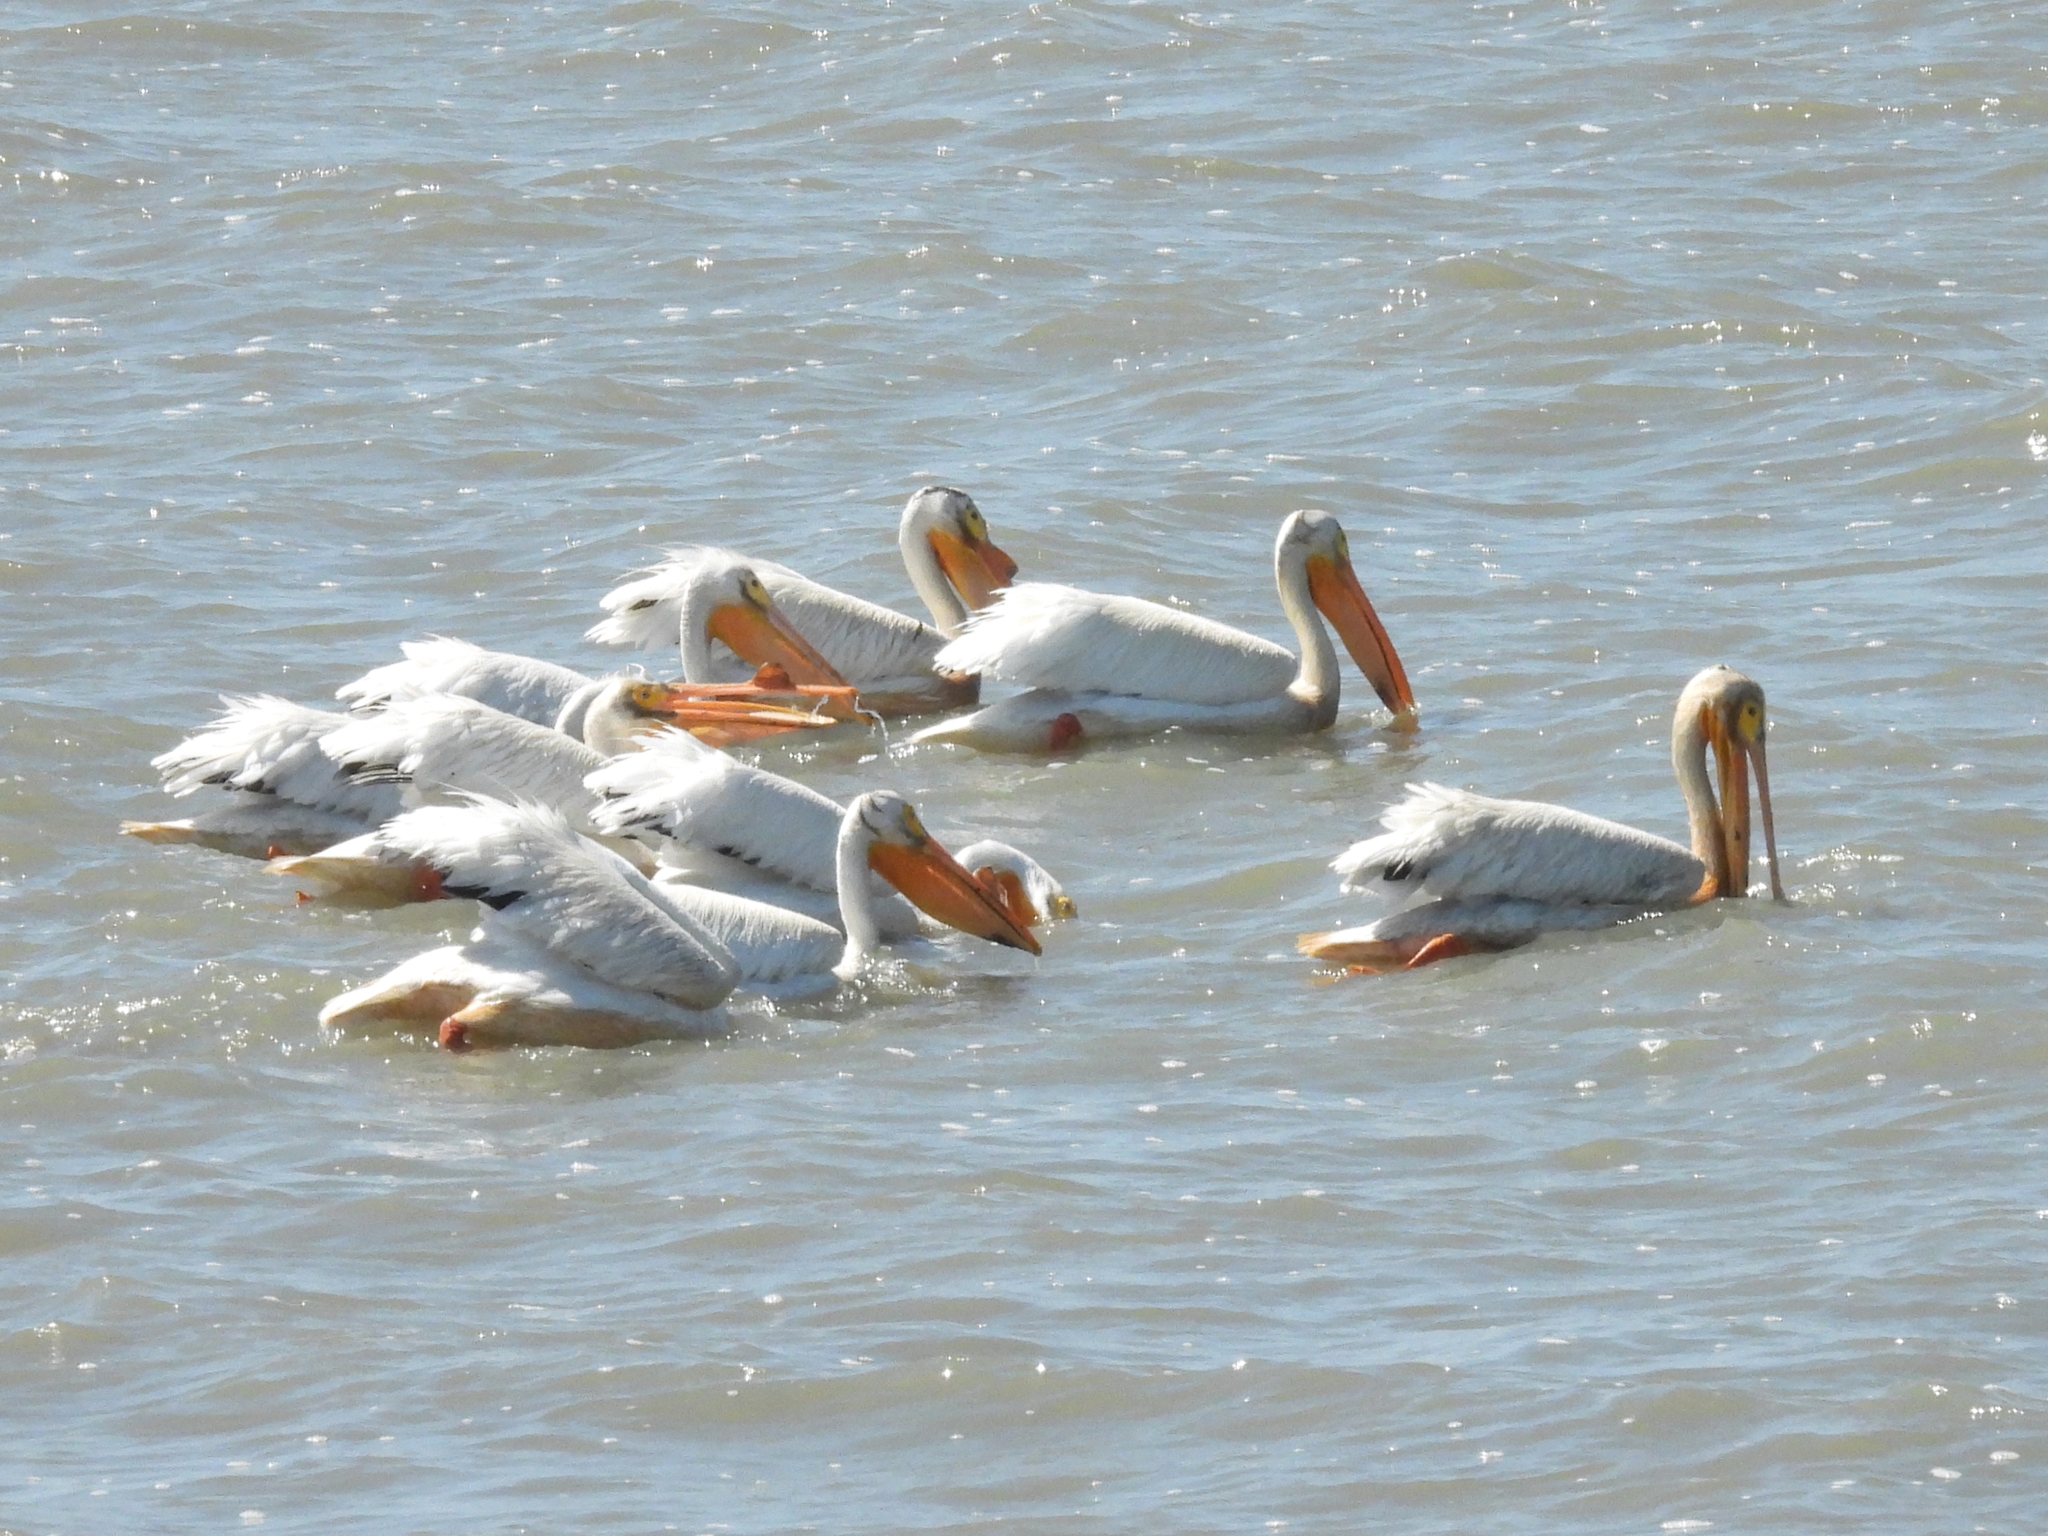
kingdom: Animalia
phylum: Chordata
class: Aves
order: Pelecaniformes
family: Pelecanidae
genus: Pelecanus
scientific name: Pelecanus erythrorhynchos
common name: American white pelican
